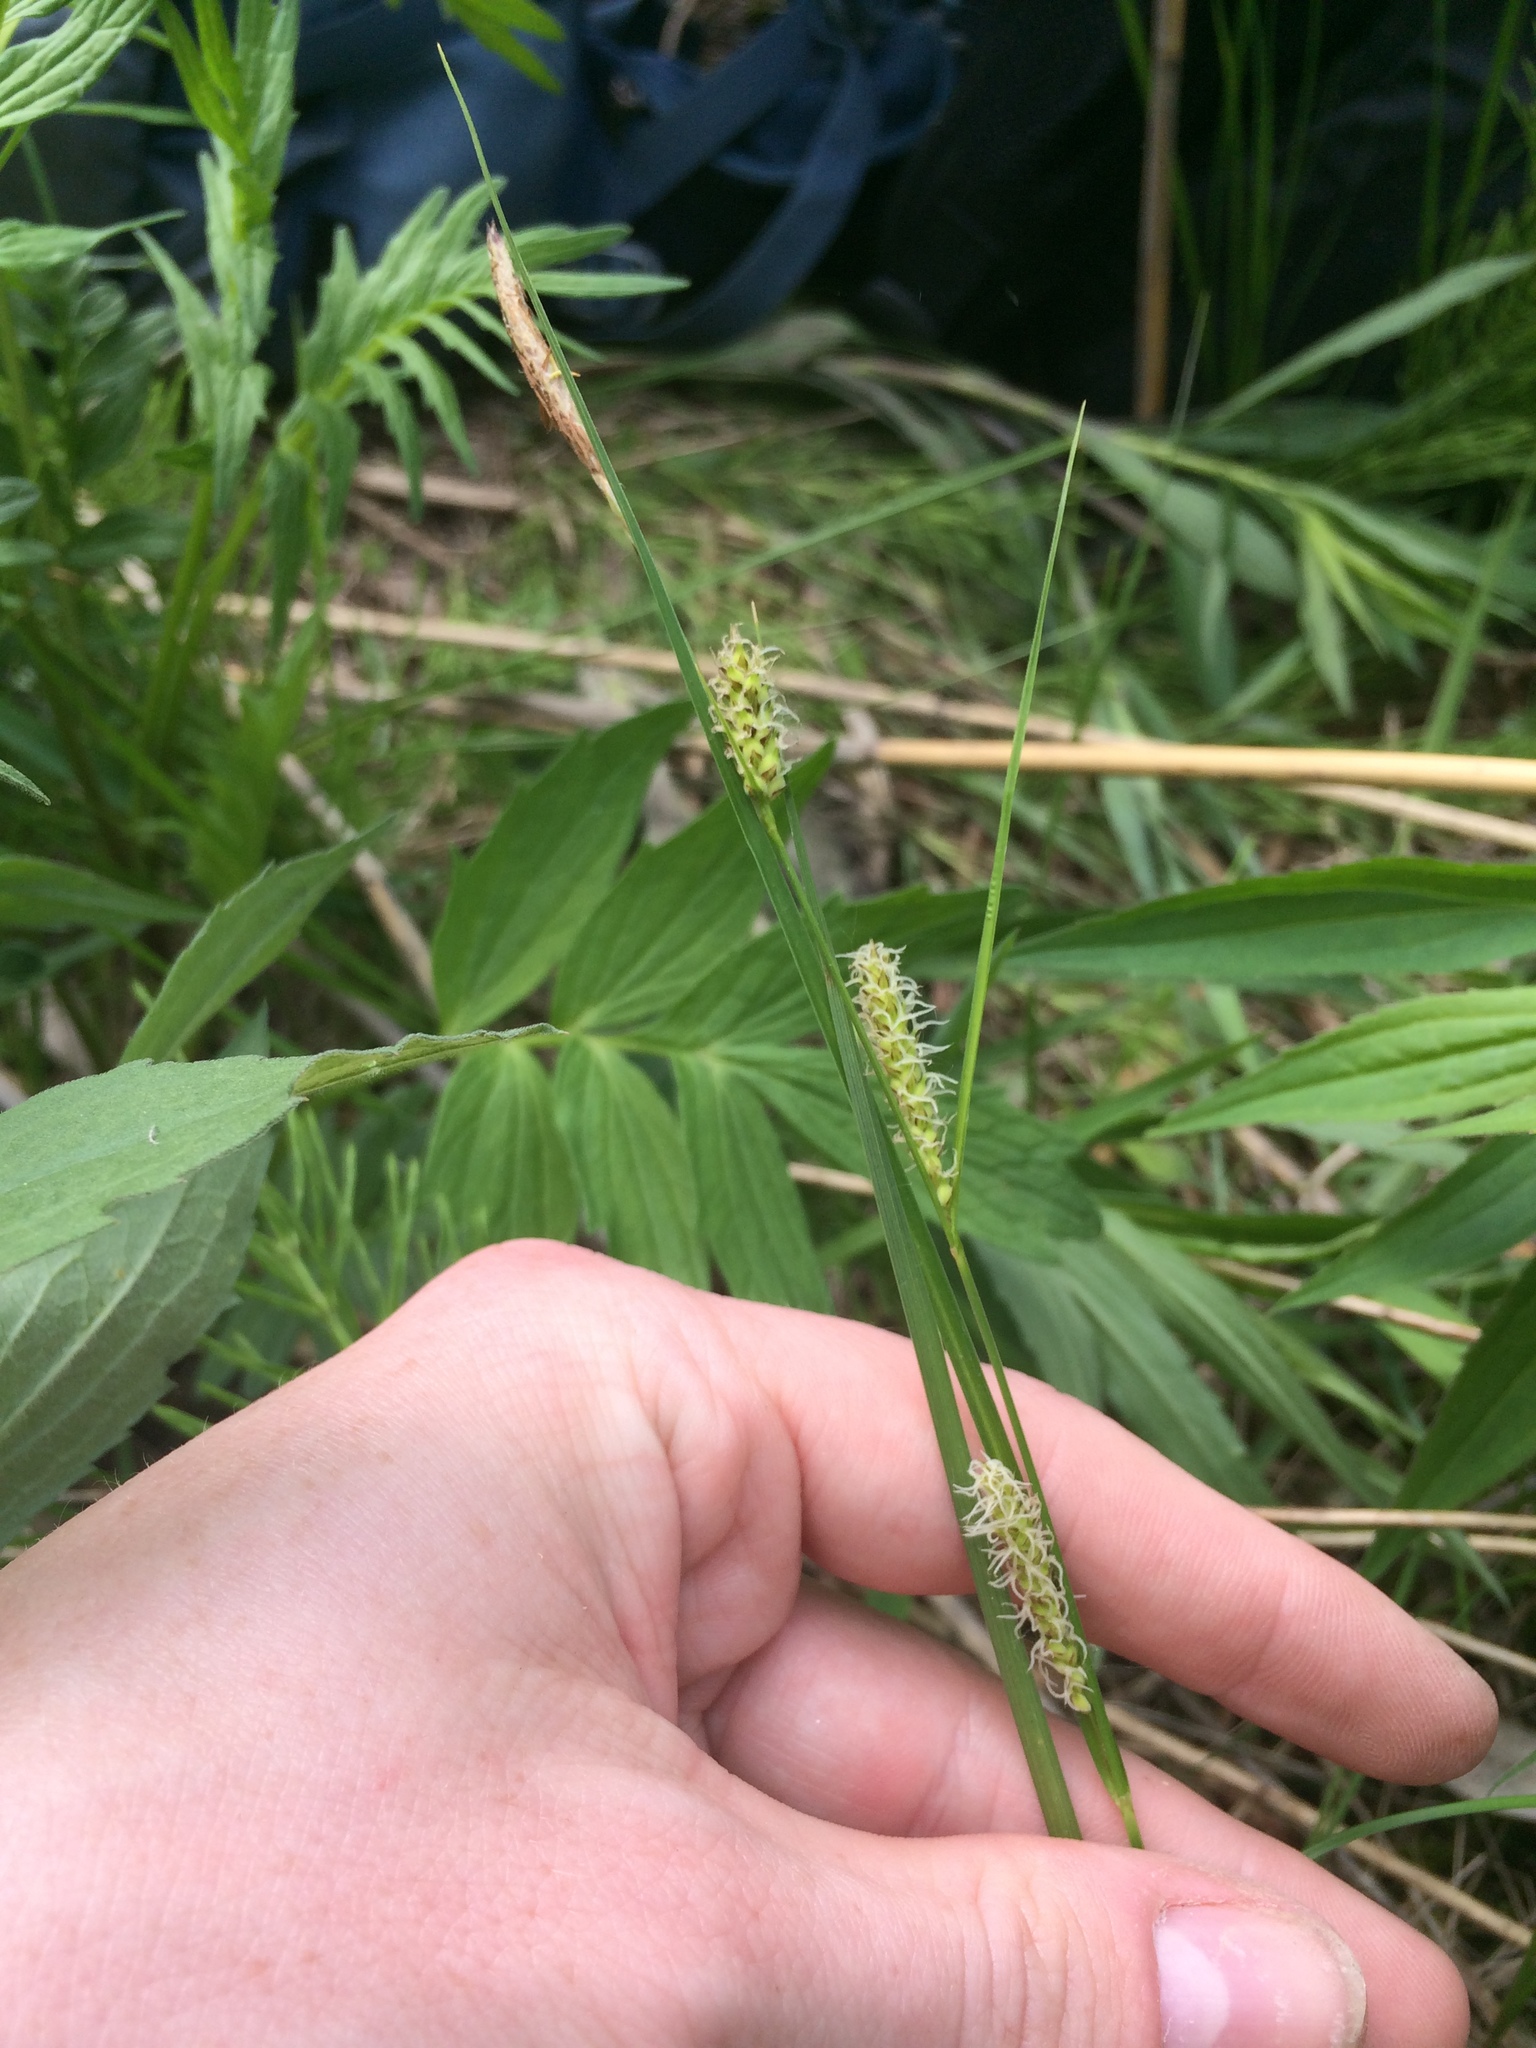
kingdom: Plantae
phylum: Tracheophyta
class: Liliopsida
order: Poales
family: Cyperaceae
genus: Carex
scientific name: Carex pellita
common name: Woolly sedge
